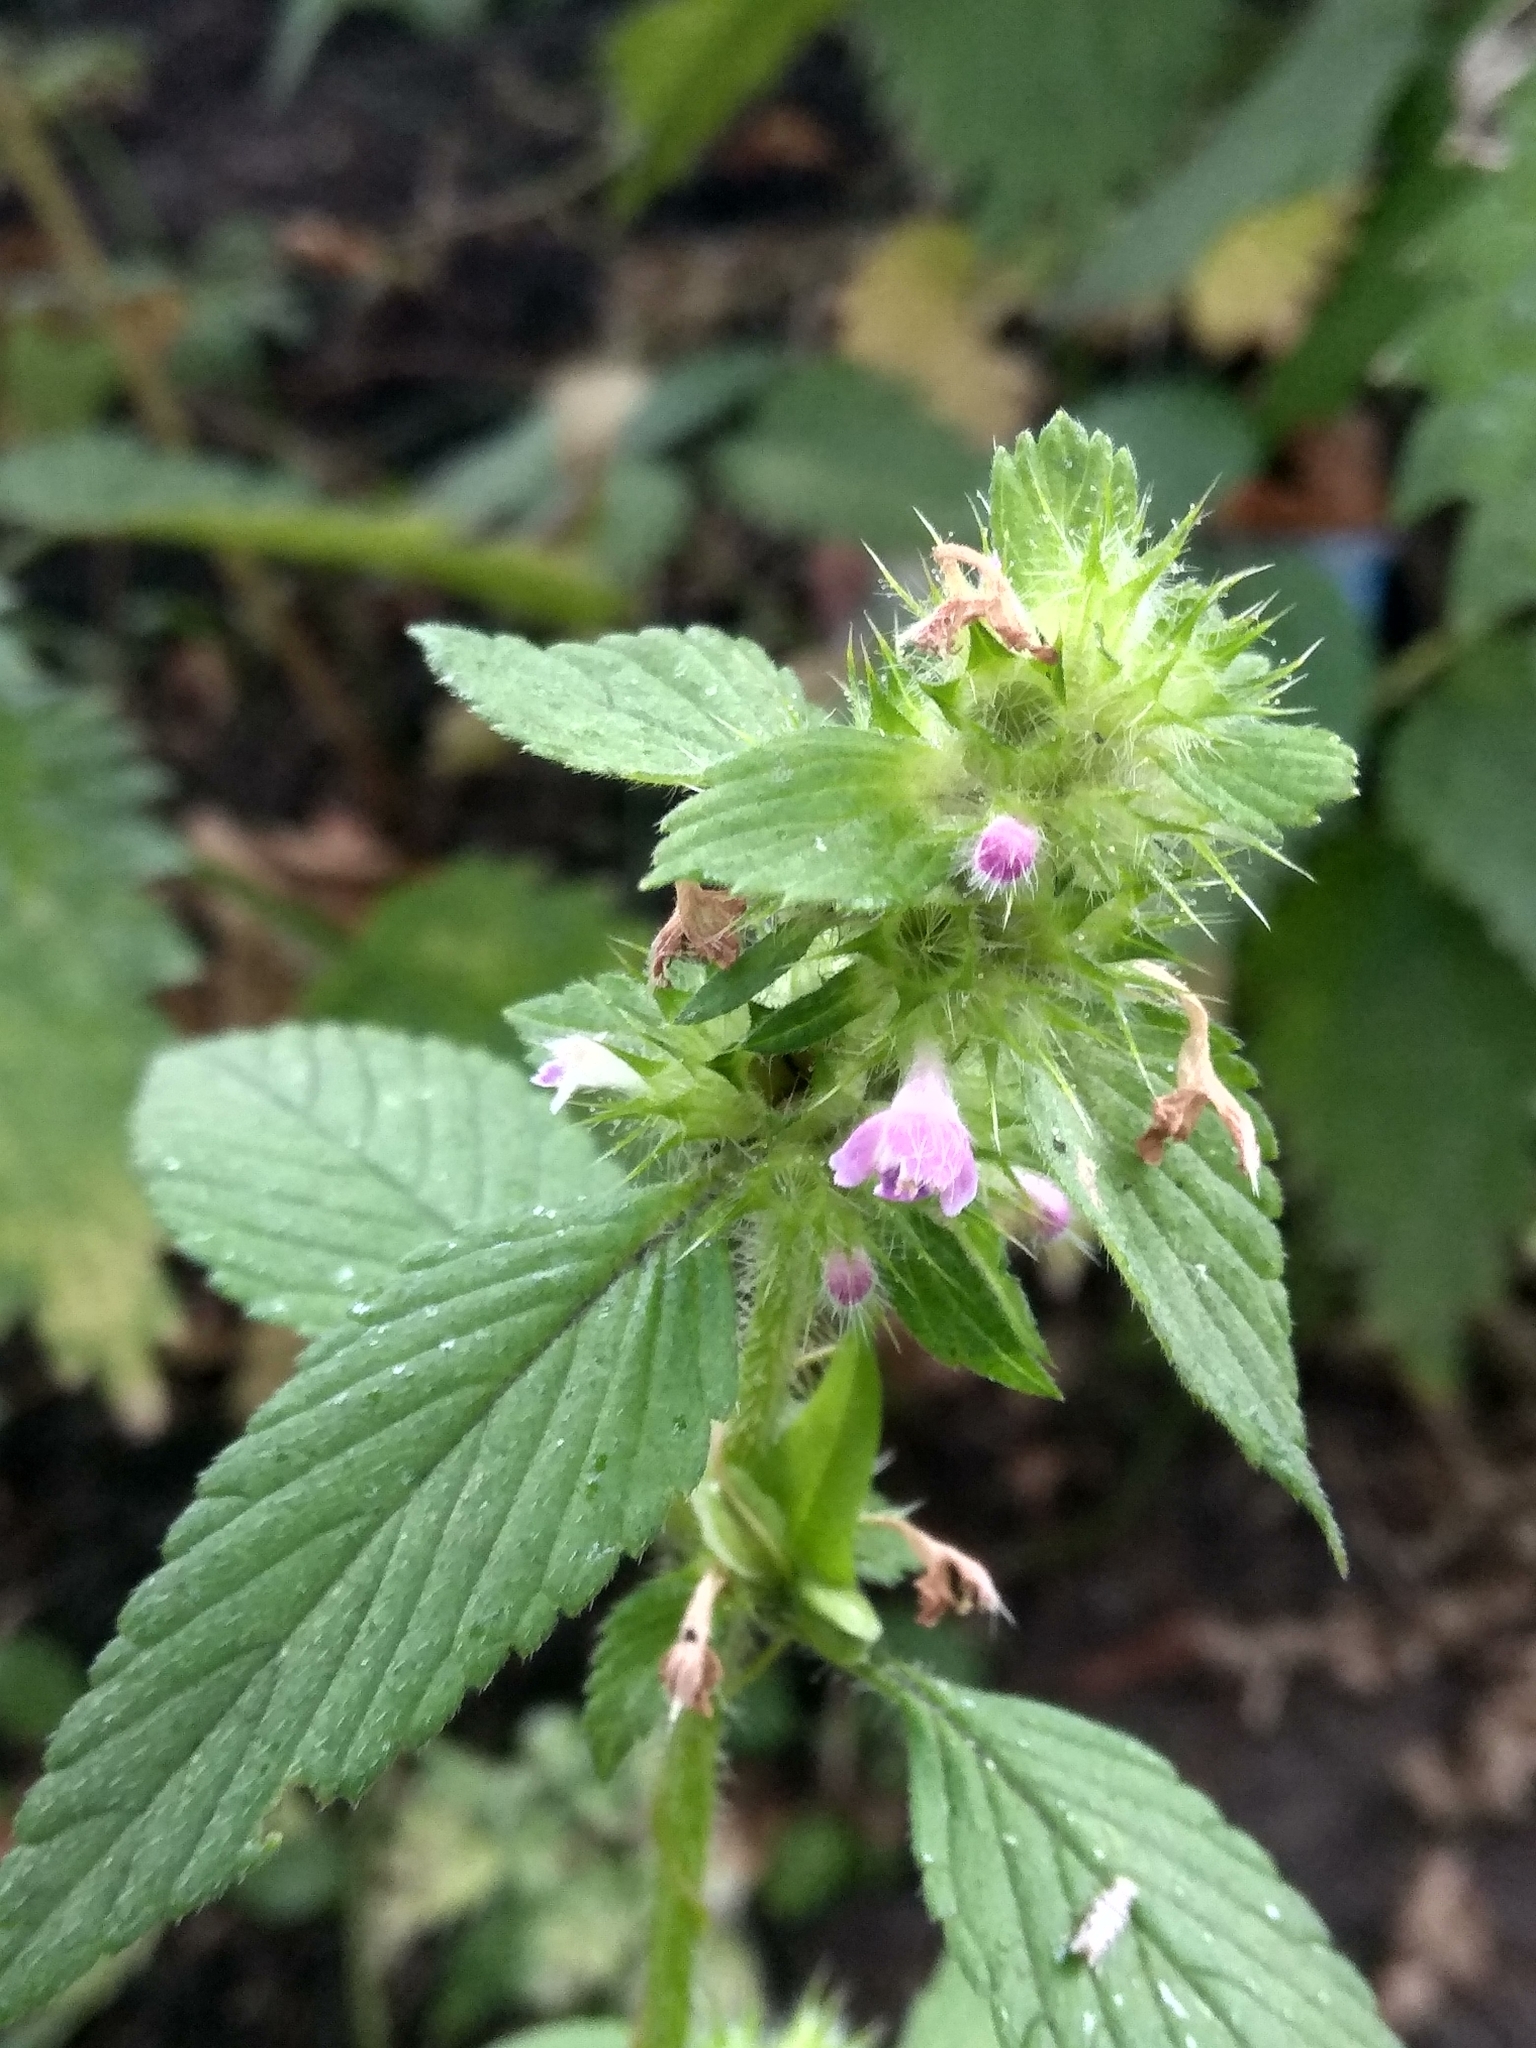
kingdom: Plantae
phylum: Tracheophyta
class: Magnoliopsida
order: Lamiales
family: Lamiaceae
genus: Galeopsis
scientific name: Galeopsis bifida
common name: Bifid hemp-nettle
